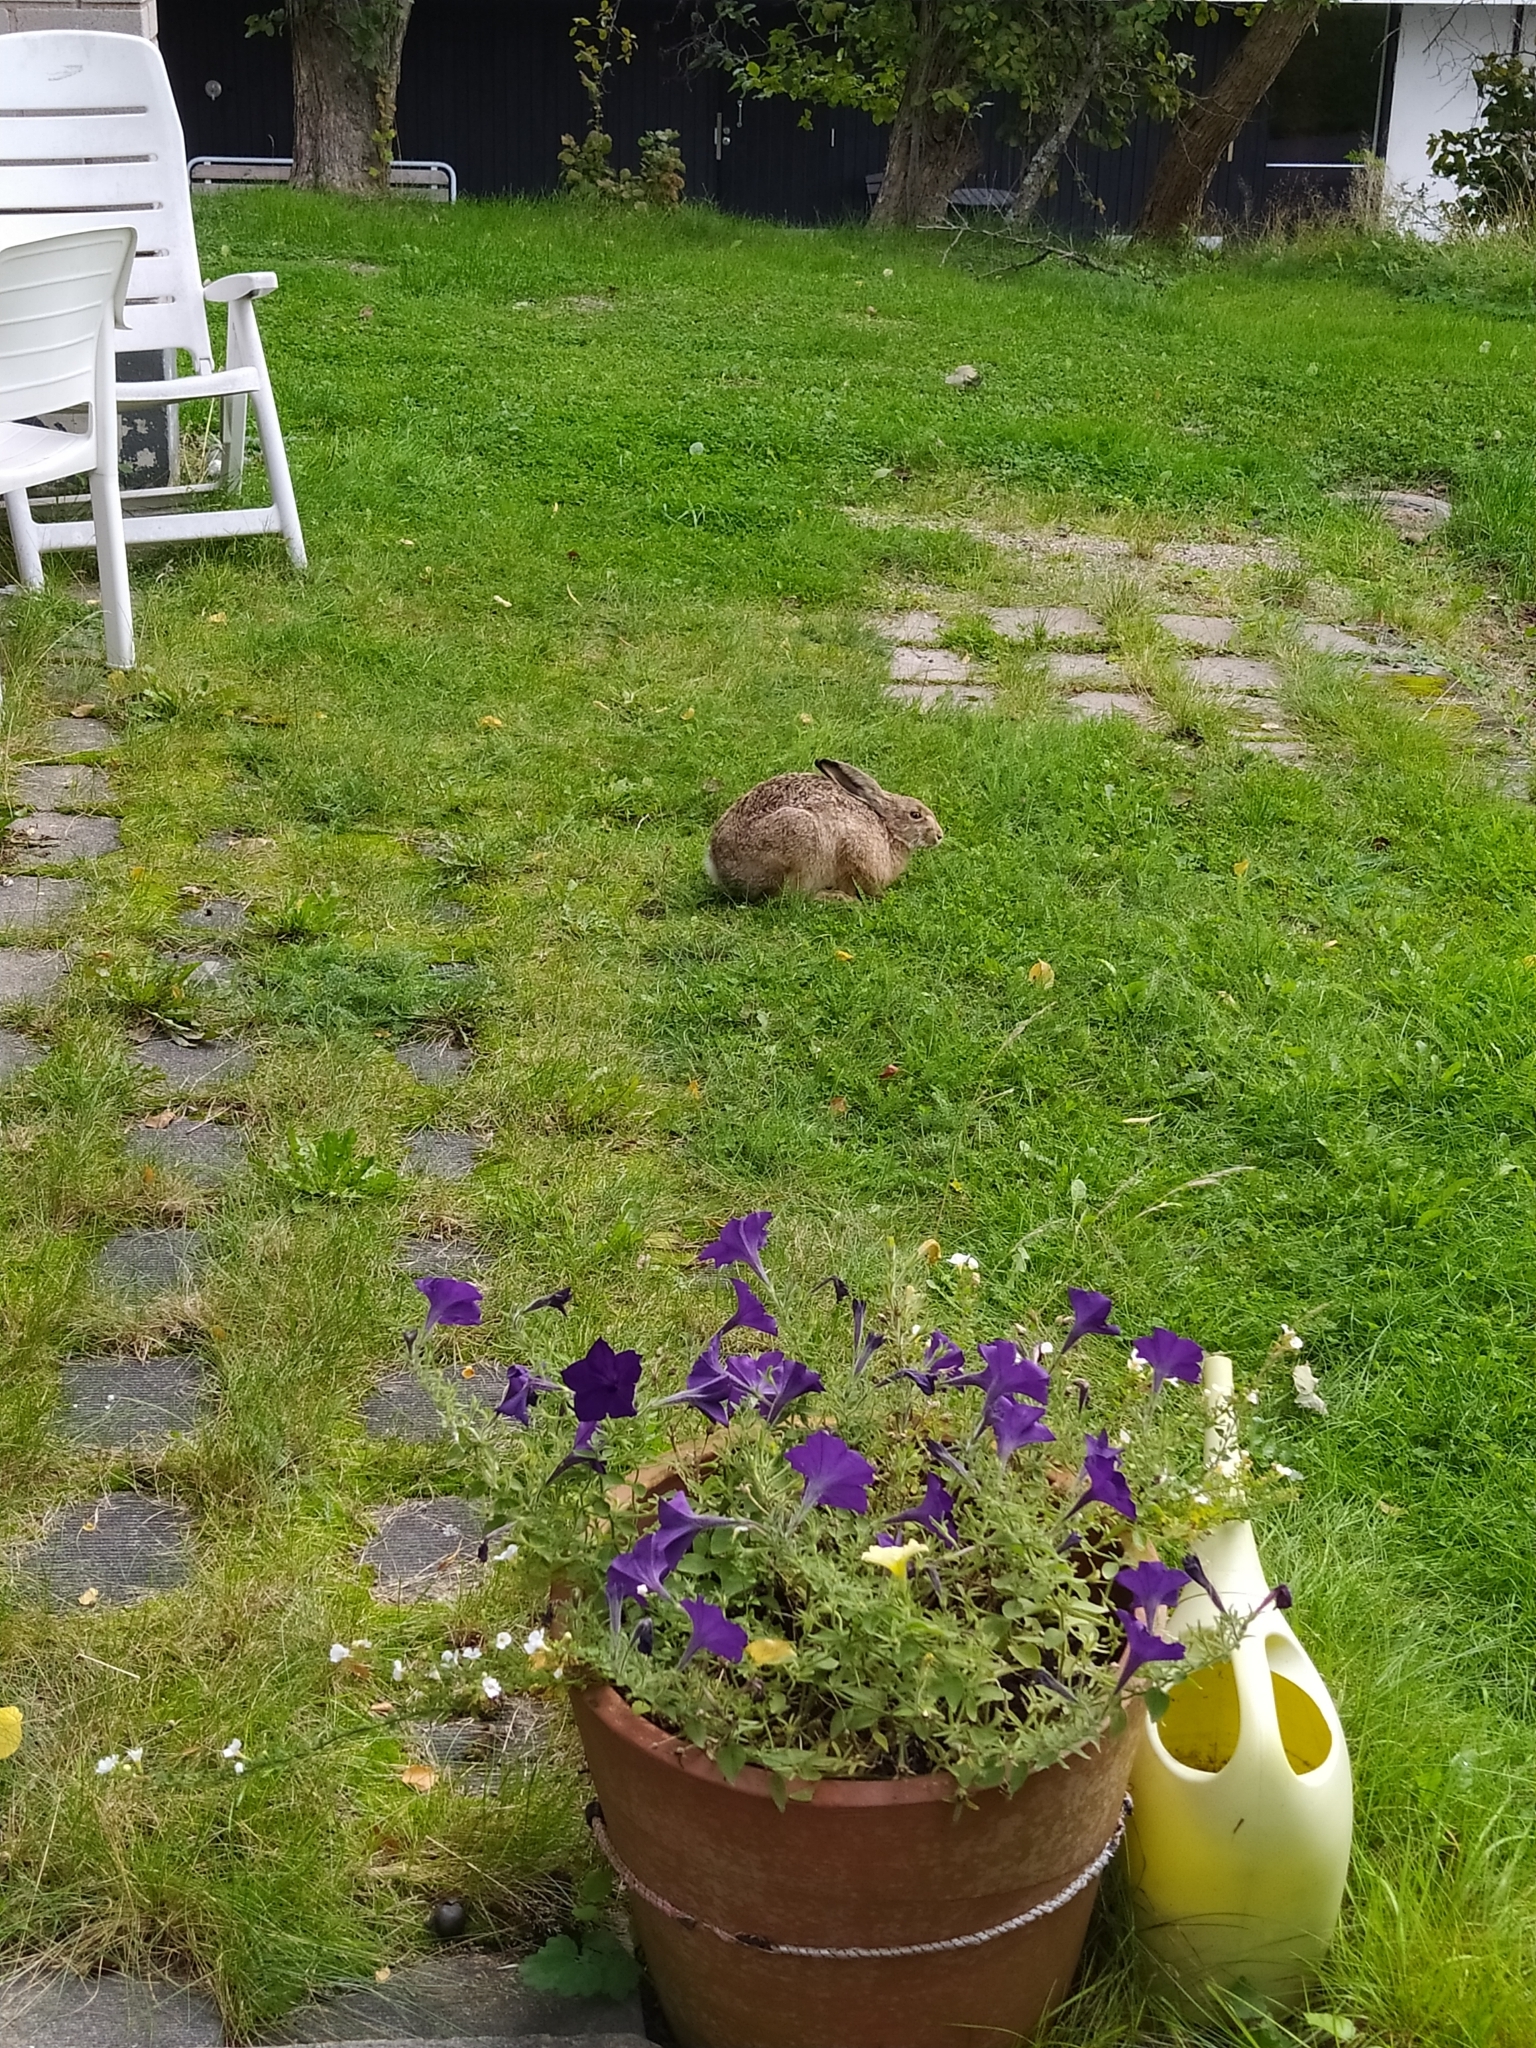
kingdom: Animalia
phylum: Chordata
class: Mammalia
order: Lagomorpha
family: Leporidae
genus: Lepus
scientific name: Lepus europaeus
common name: European hare
